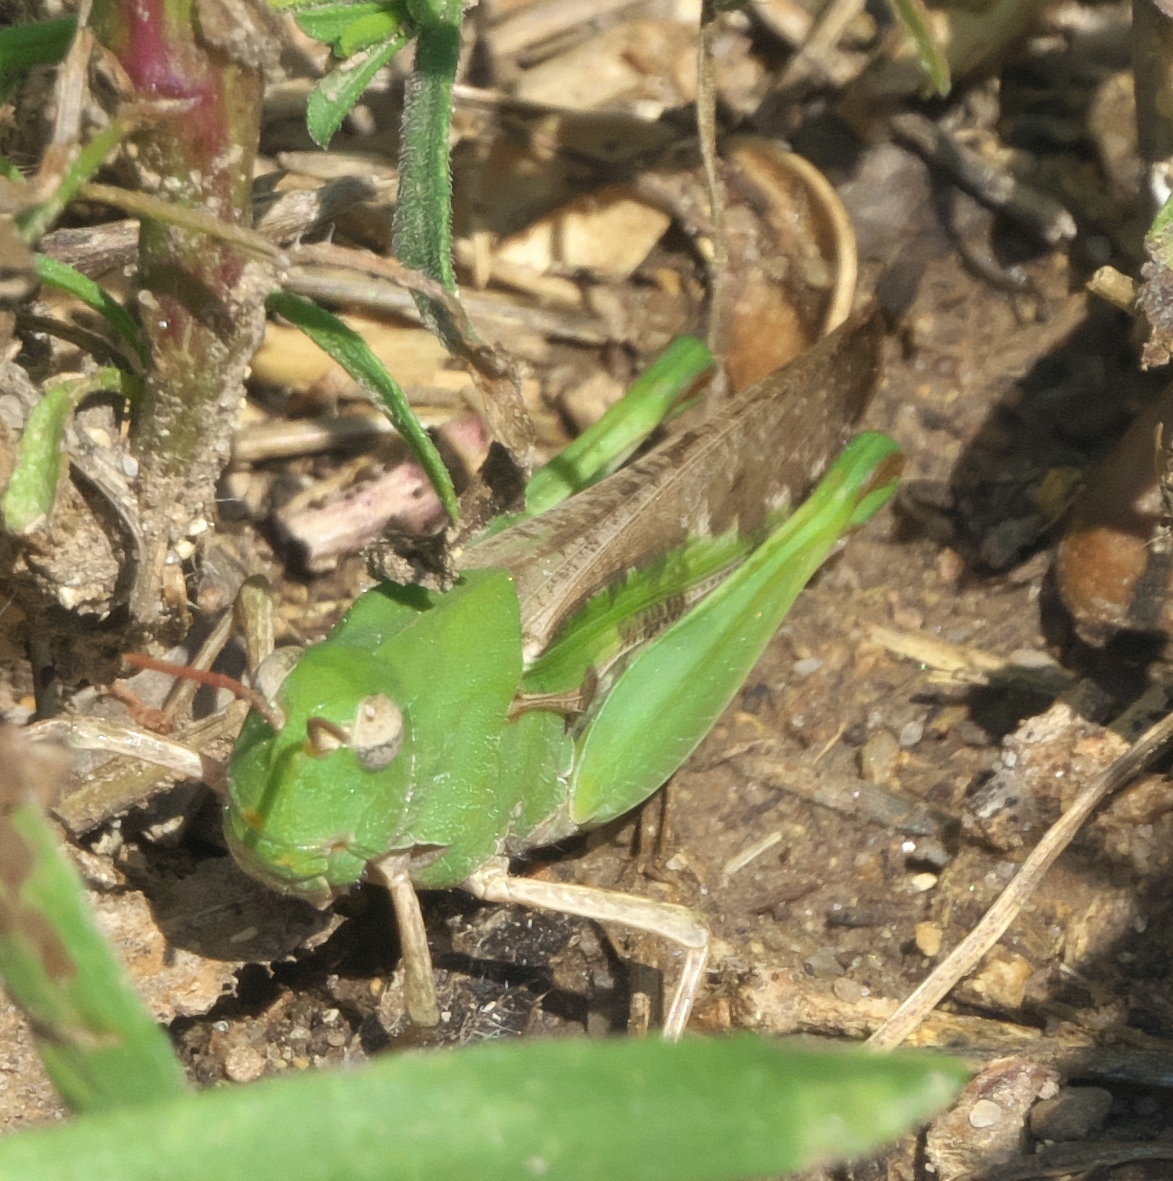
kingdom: Animalia
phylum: Arthropoda
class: Insecta
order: Orthoptera
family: Acrididae
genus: Chortophaga
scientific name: Chortophaga viridifasciata
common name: Green-striped grasshopper
